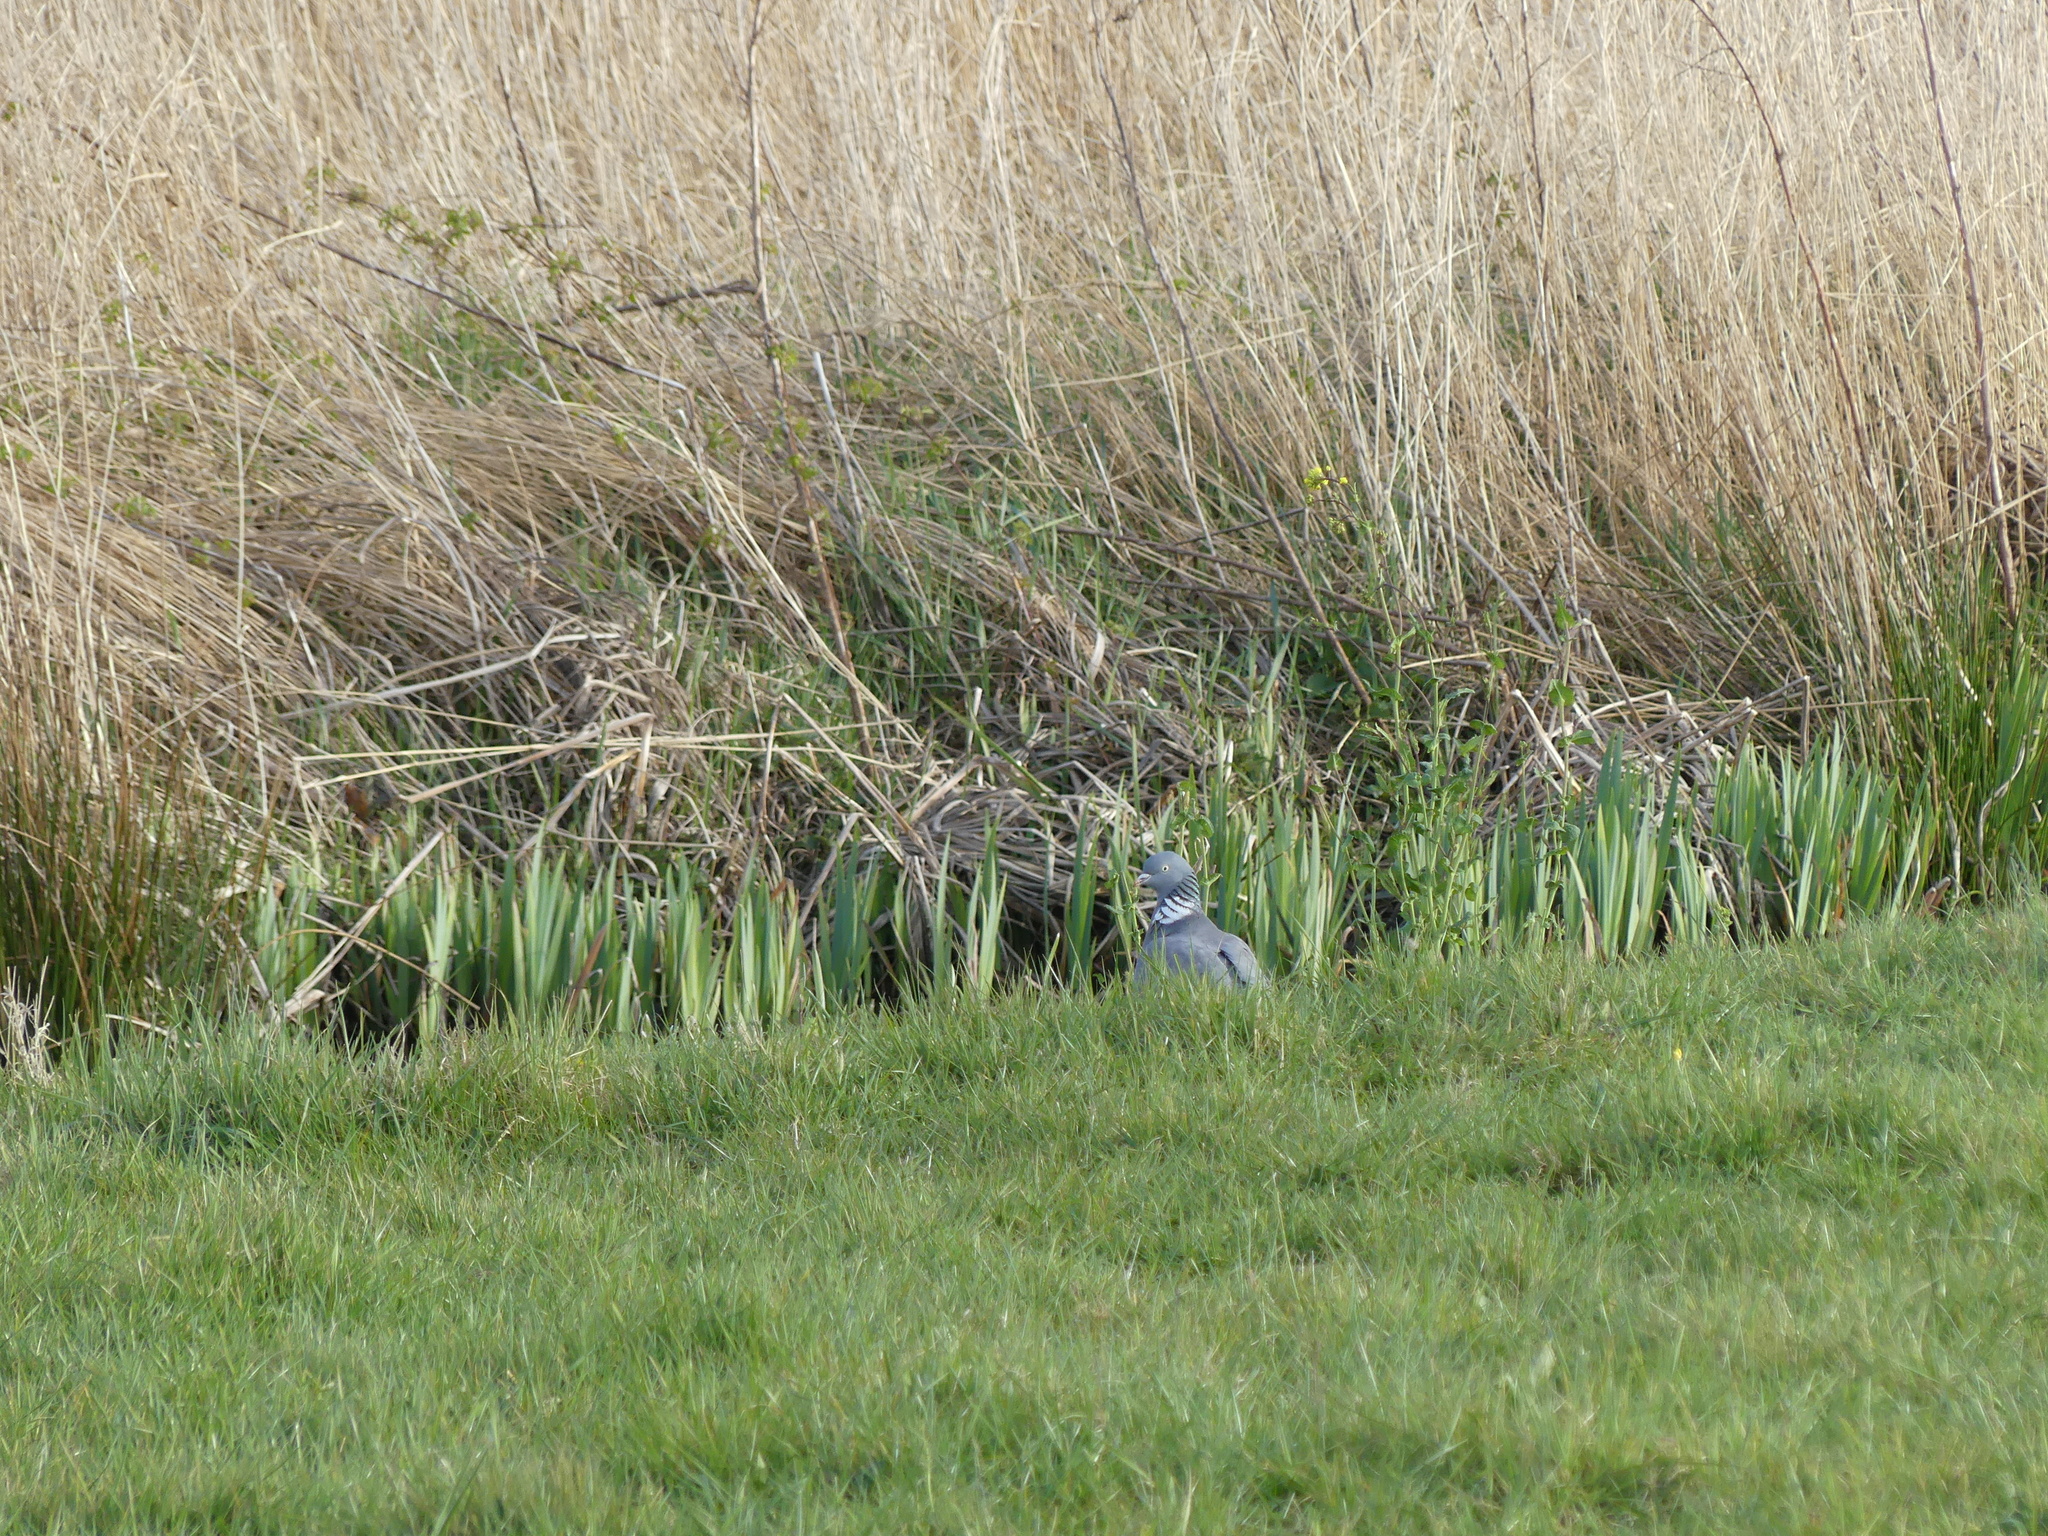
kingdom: Animalia
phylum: Chordata
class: Aves
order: Columbiformes
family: Columbidae
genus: Columba
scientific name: Columba palumbus
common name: Common wood pigeon
